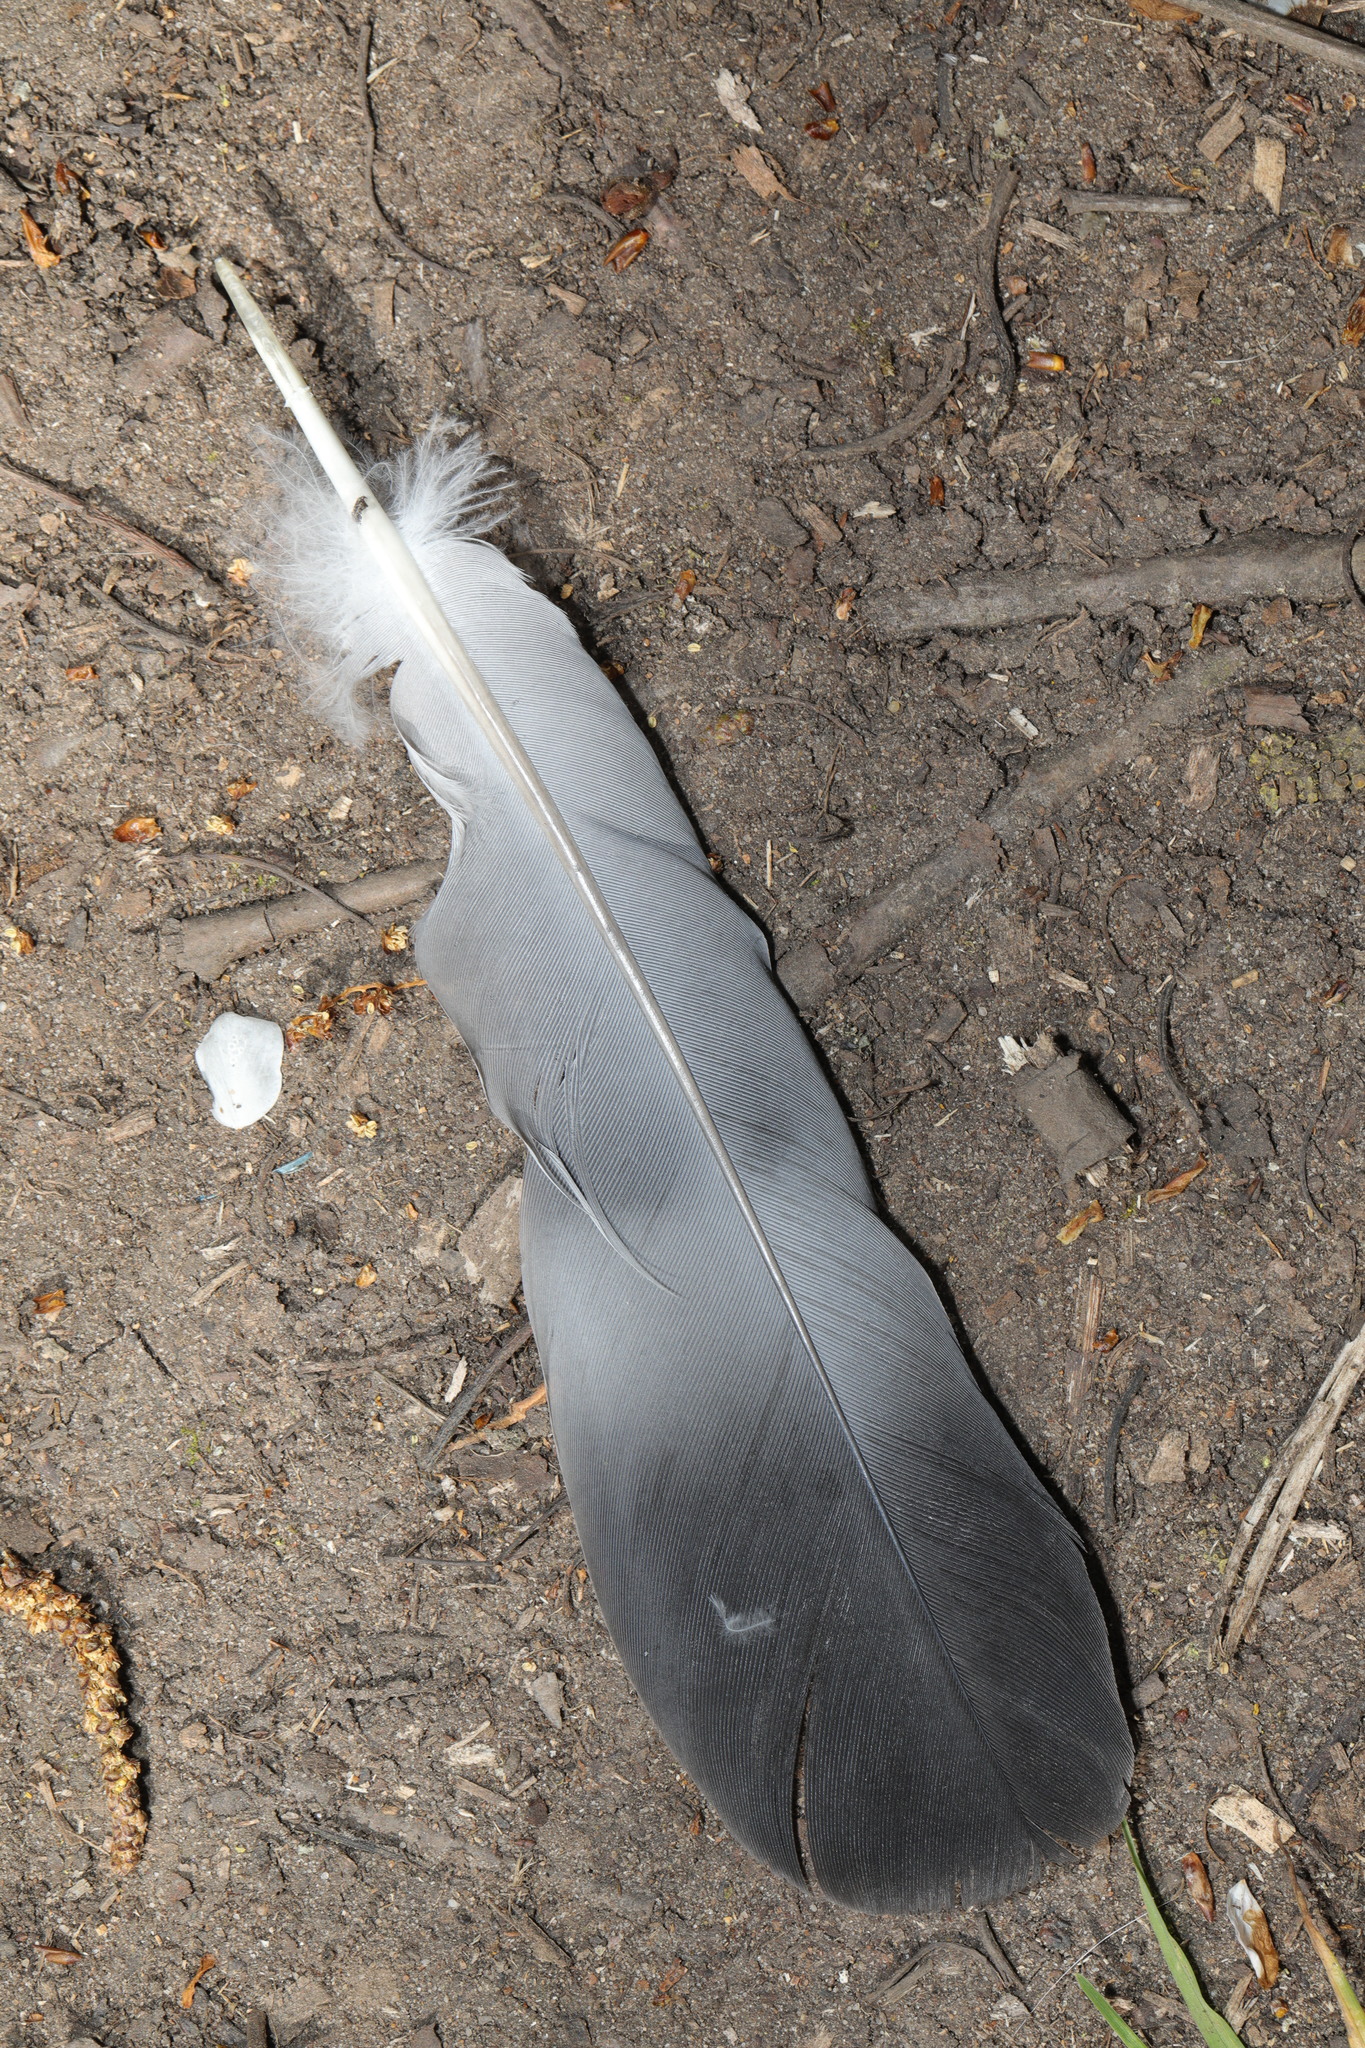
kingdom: Animalia
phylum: Chordata
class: Aves
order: Columbiformes
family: Columbidae
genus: Columba
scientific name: Columba palumbus
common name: Common wood pigeon
